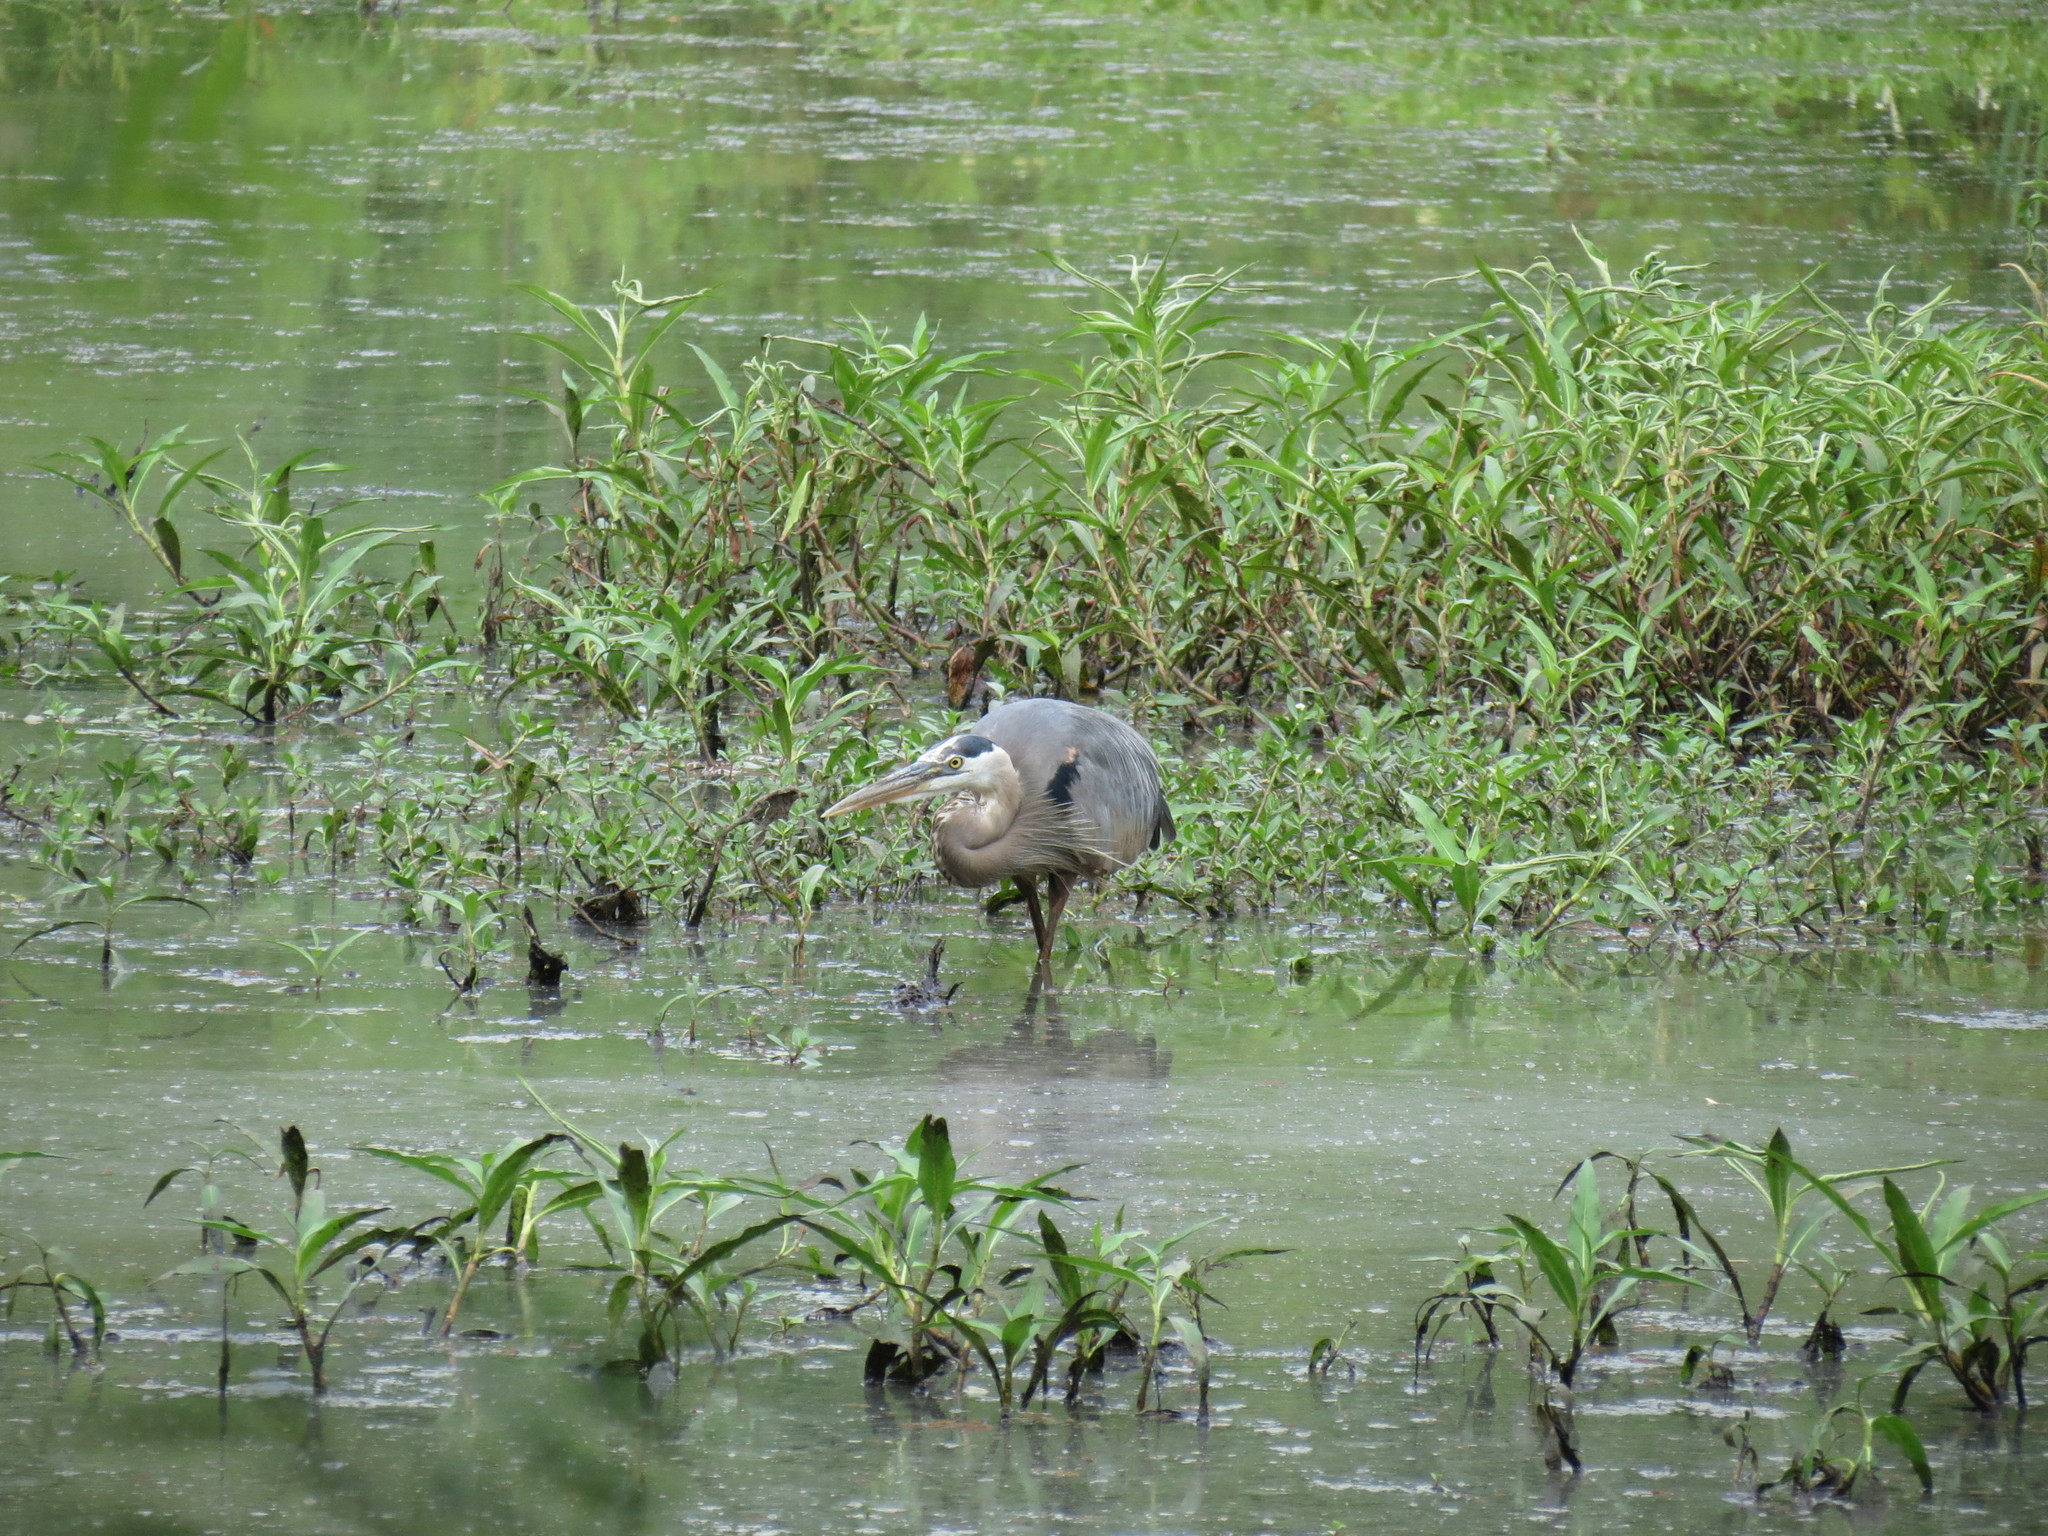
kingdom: Animalia
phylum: Chordata
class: Aves
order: Pelecaniformes
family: Ardeidae
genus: Ardea
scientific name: Ardea herodias
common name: Great blue heron
